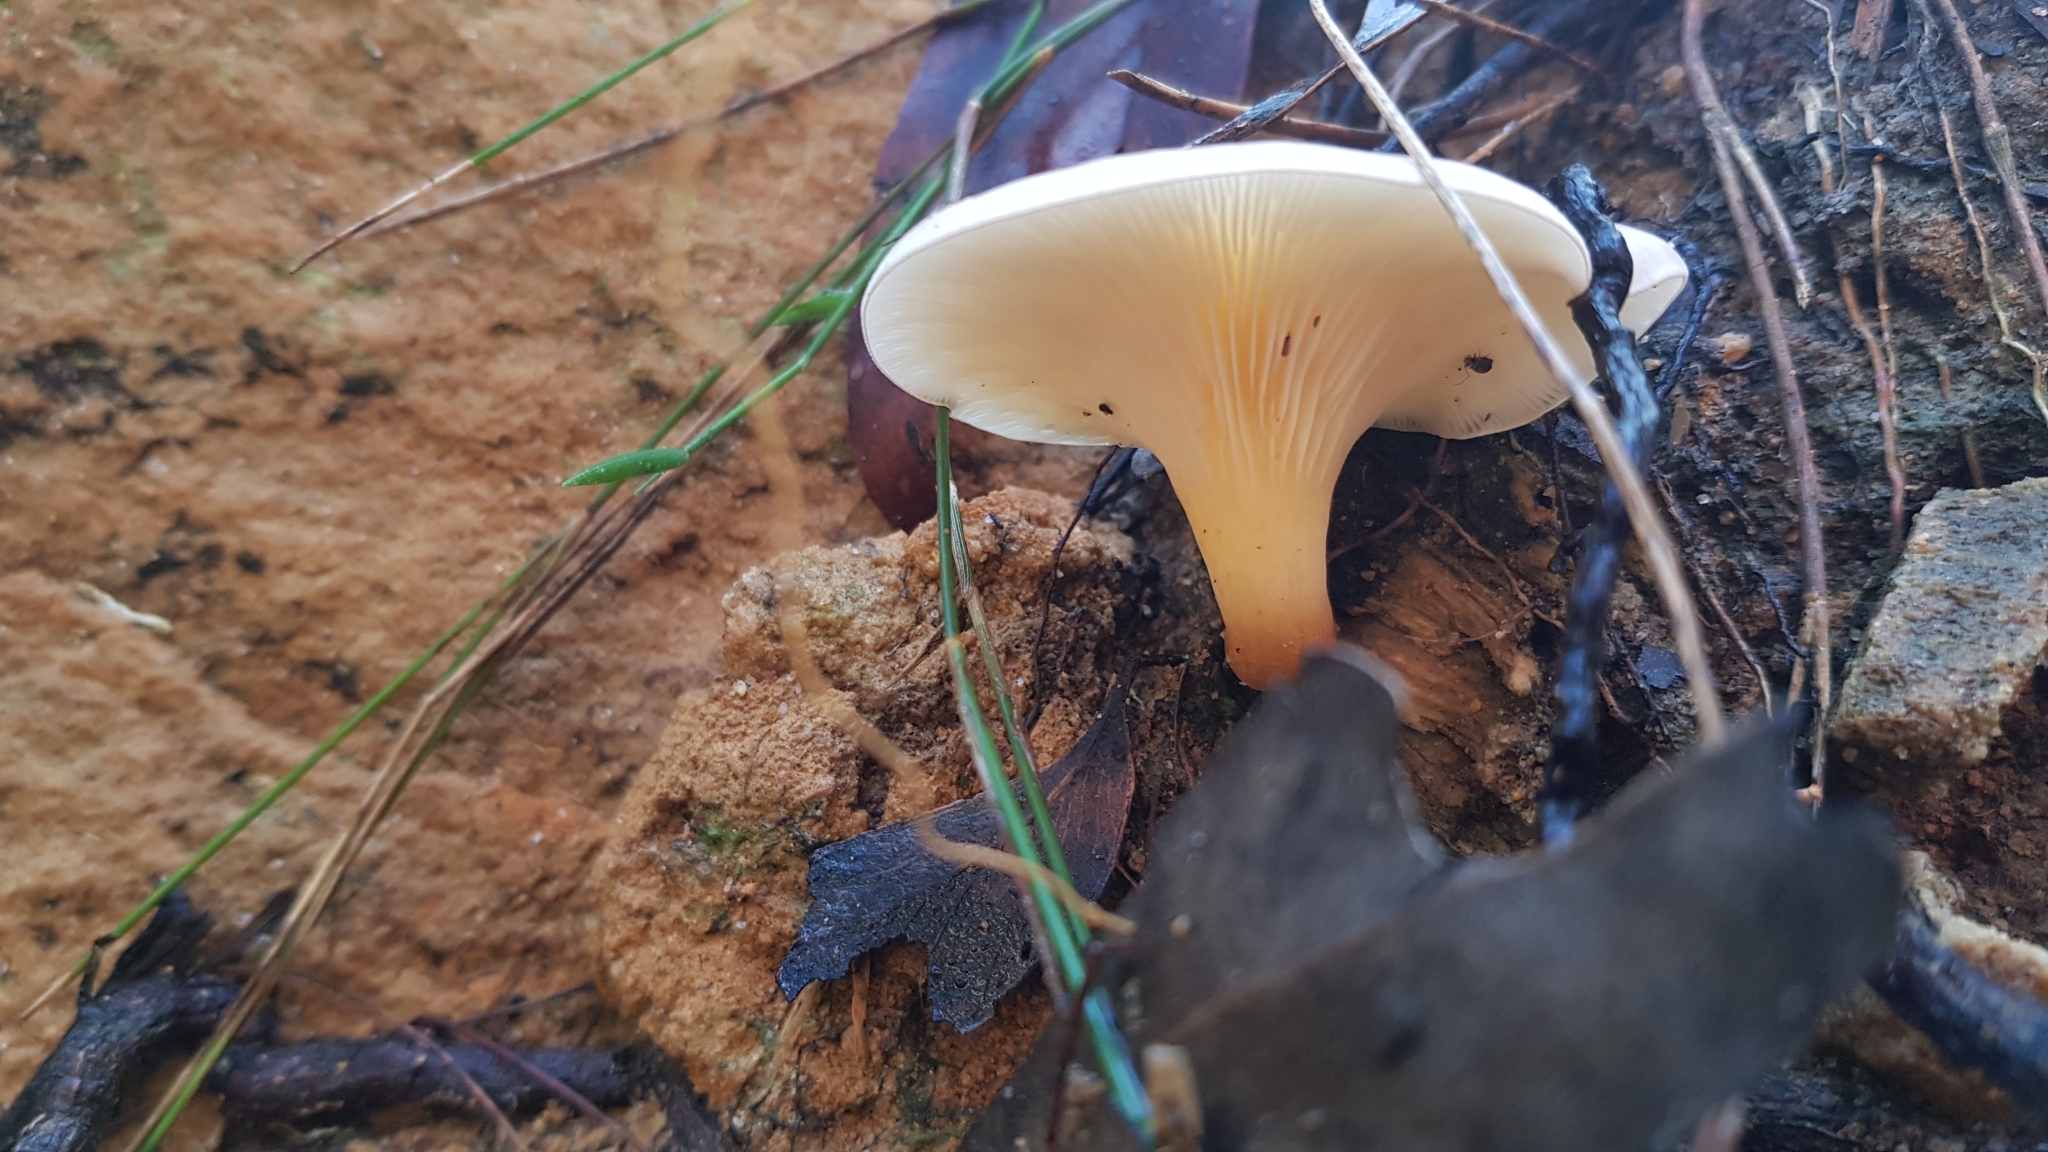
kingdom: Fungi
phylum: Basidiomycota
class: Agaricomycetes
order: Agaricales
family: Omphalotaceae
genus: Omphalotus
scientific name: Omphalotus nidiformis
